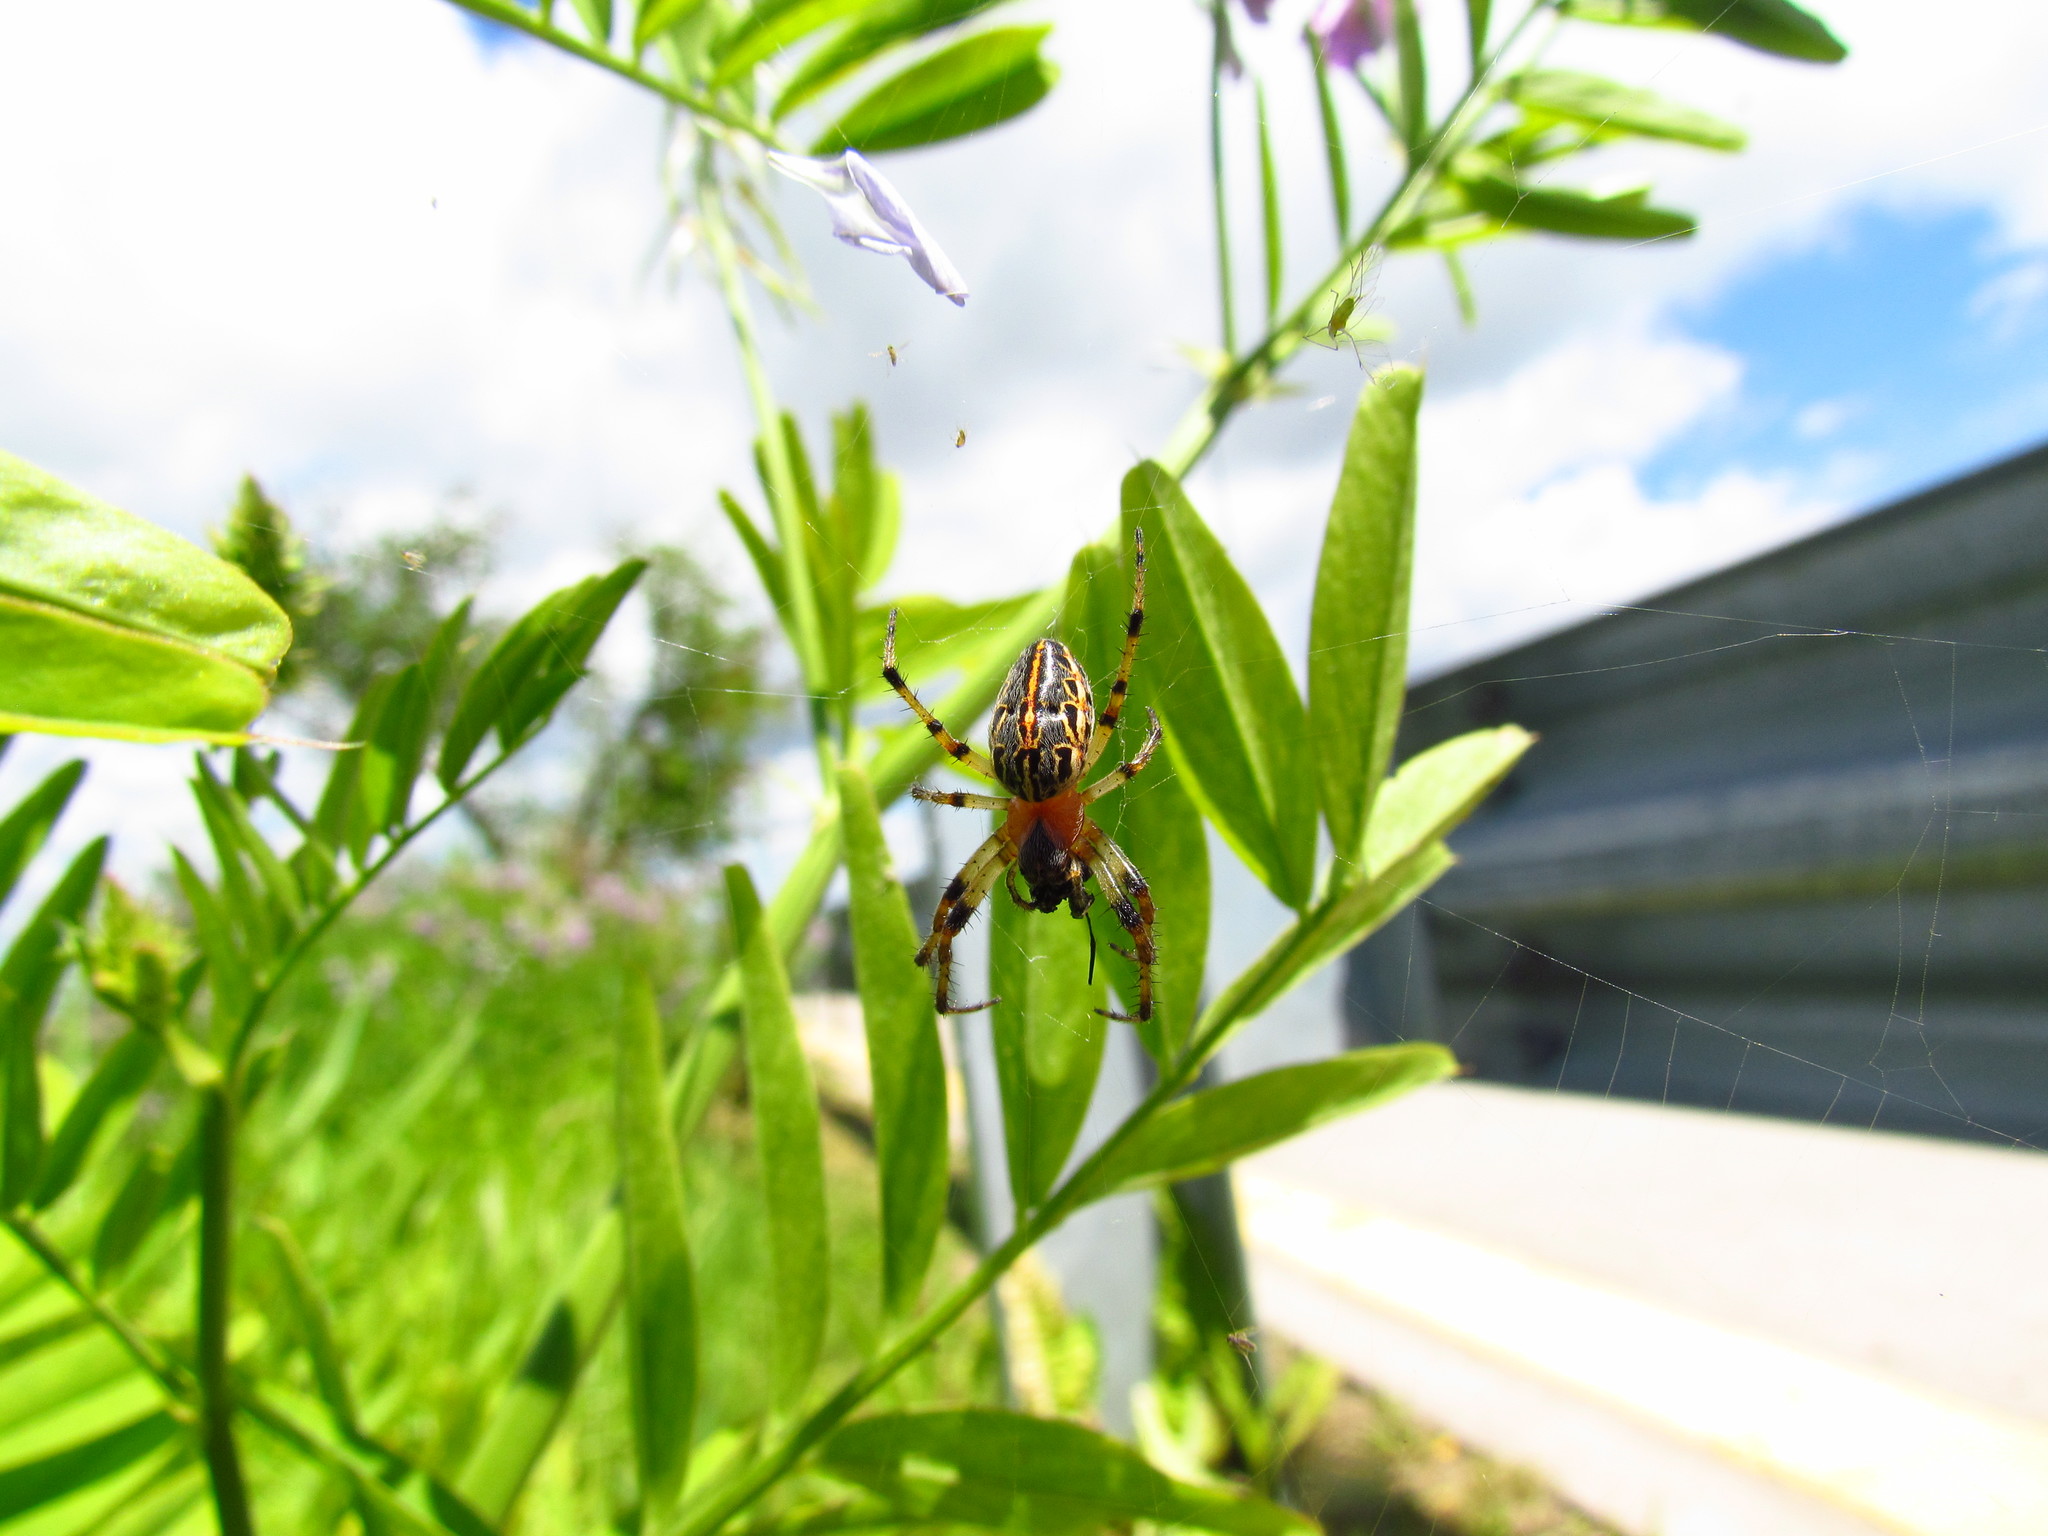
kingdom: Animalia
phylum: Arthropoda
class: Arachnida
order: Araneae
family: Araneidae
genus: Alpaida
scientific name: Alpaida veniliae
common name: Orb weavers
